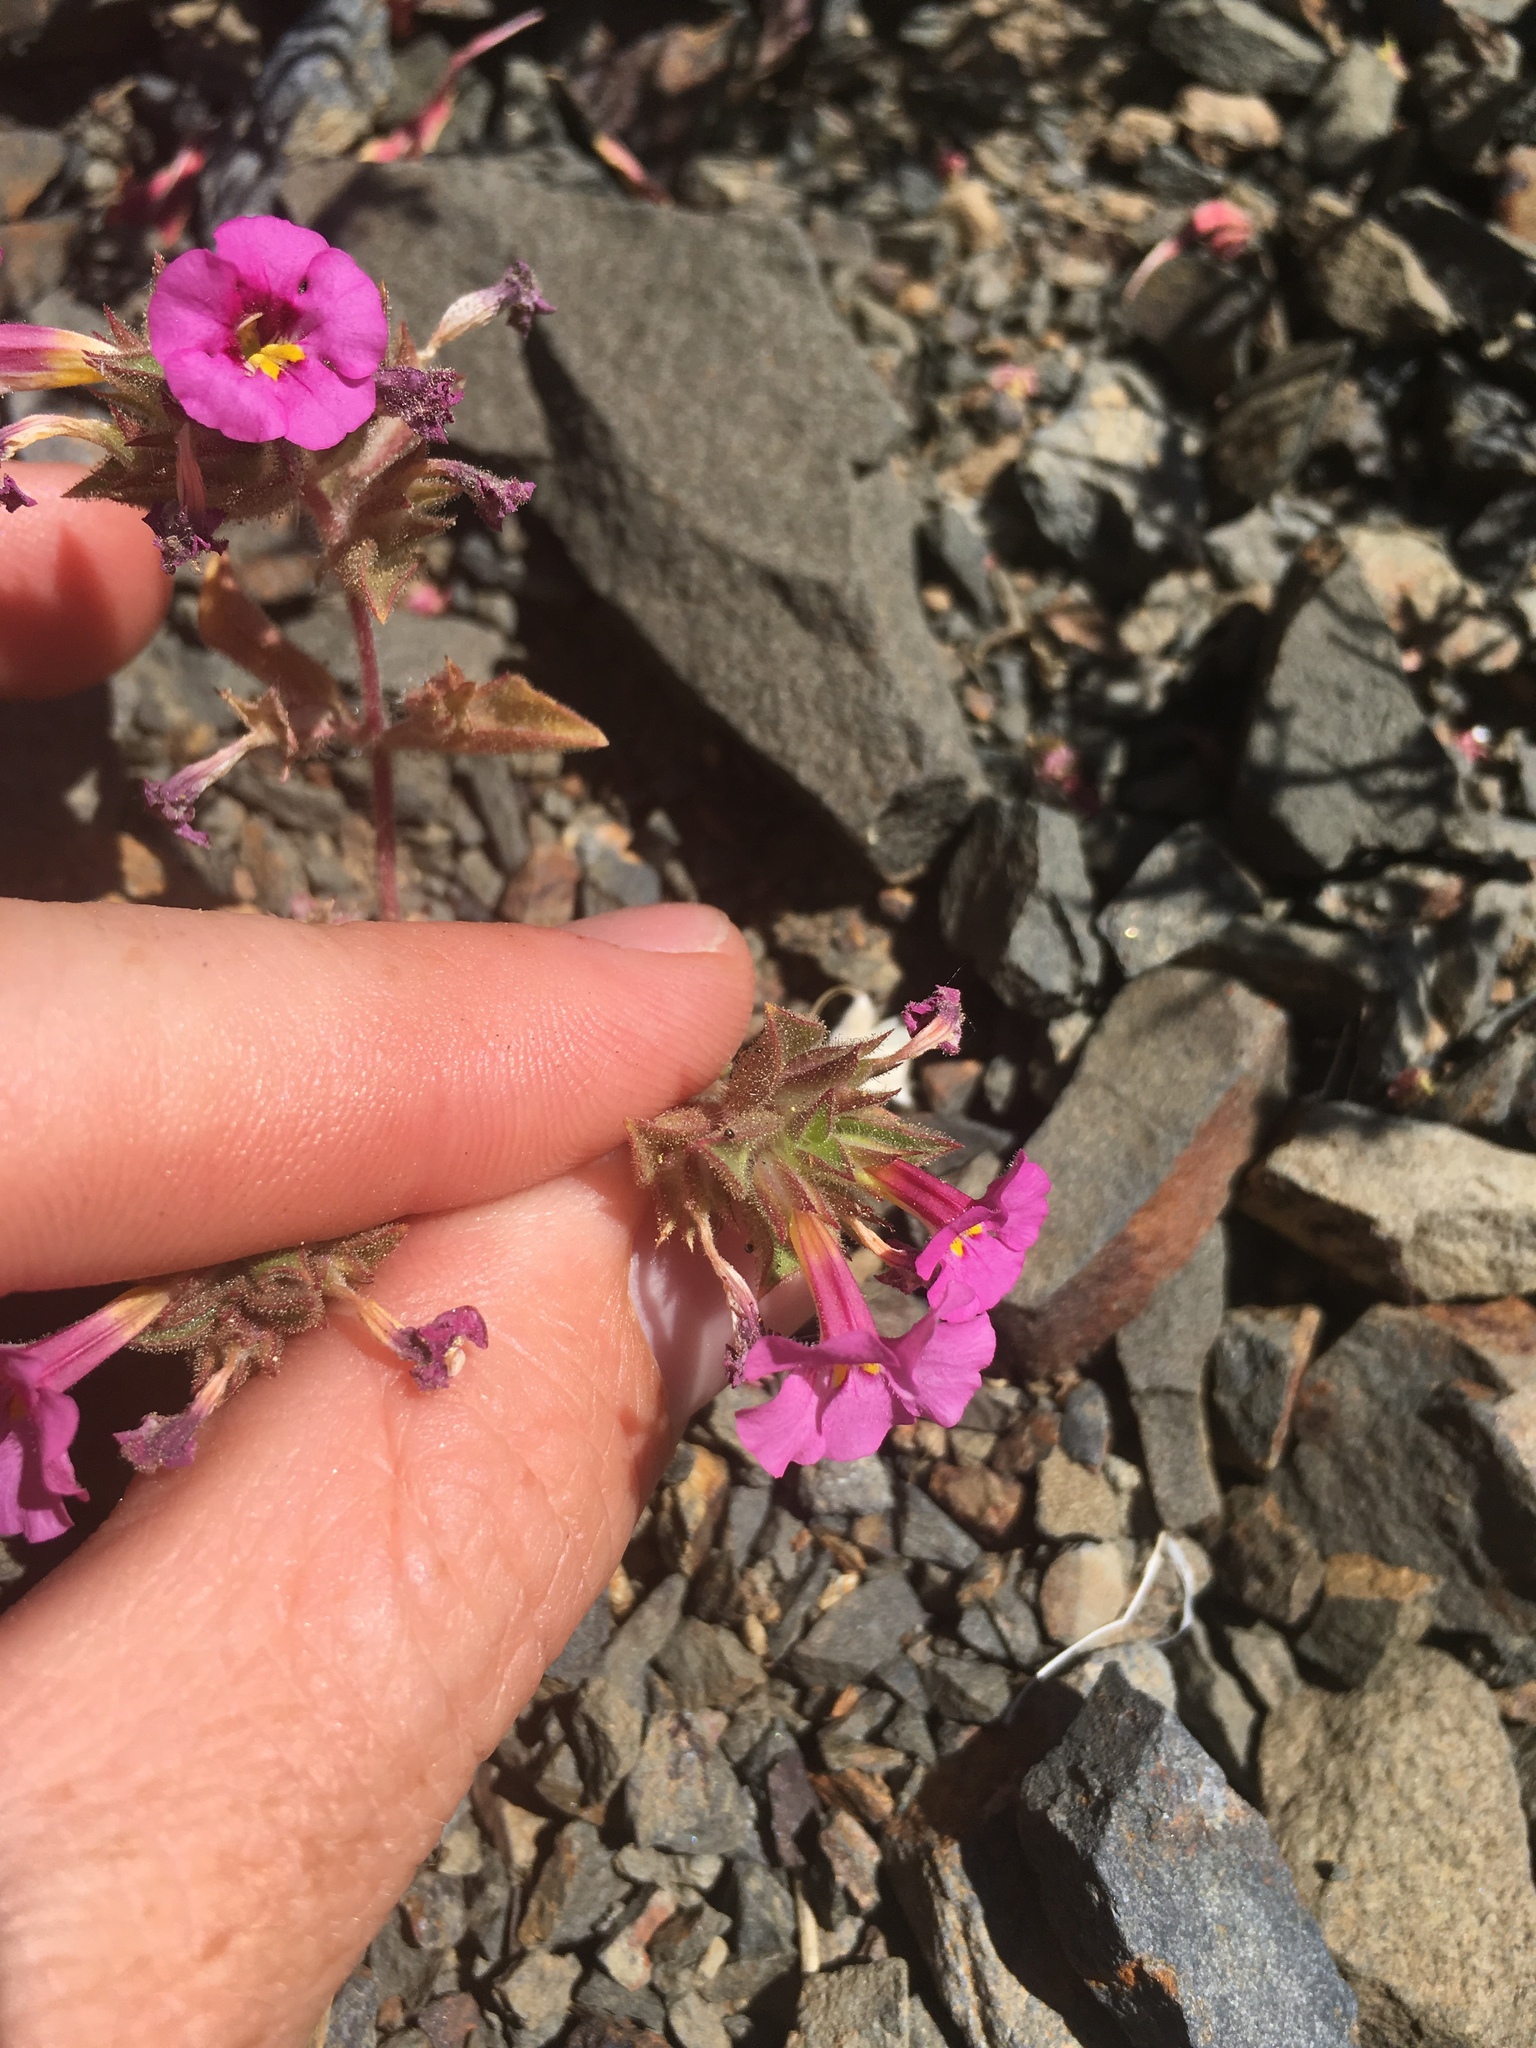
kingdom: Plantae
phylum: Tracheophyta
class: Magnoliopsida
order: Lamiales
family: Phrymaceae
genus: Diplacus
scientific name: Diplacus bigelovii
